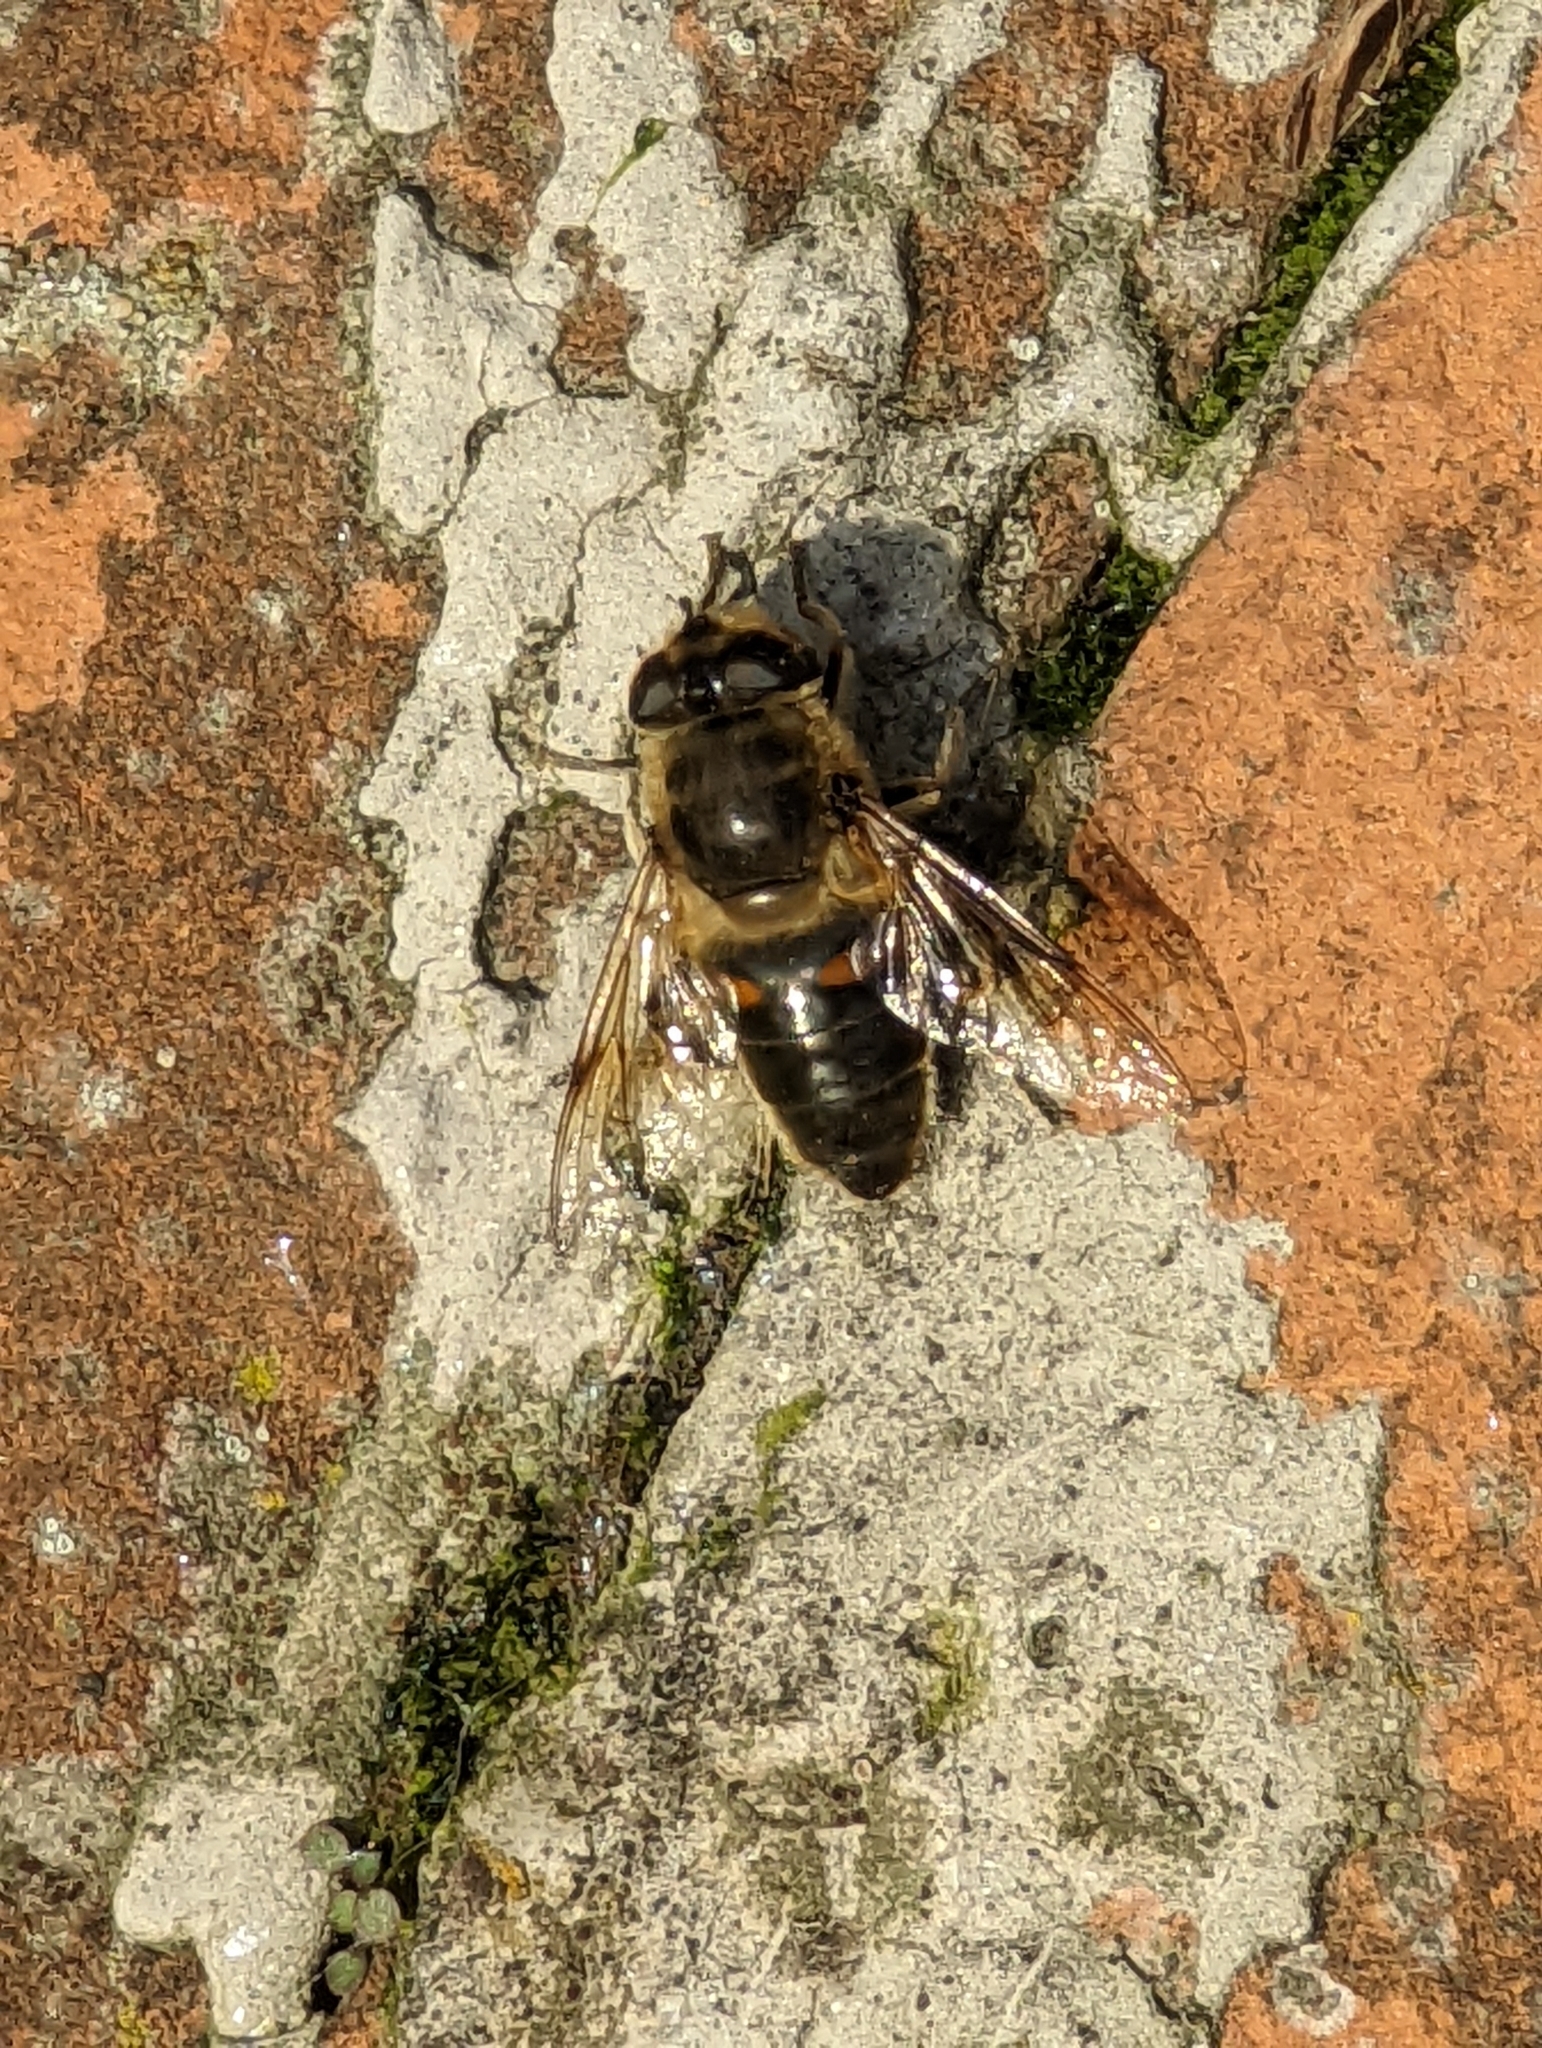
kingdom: Animalia
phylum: Arthropoda
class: Insecta
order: Diptera
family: Syrphidae
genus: Eristalis
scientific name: Eristalis tenax
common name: Drone fly
